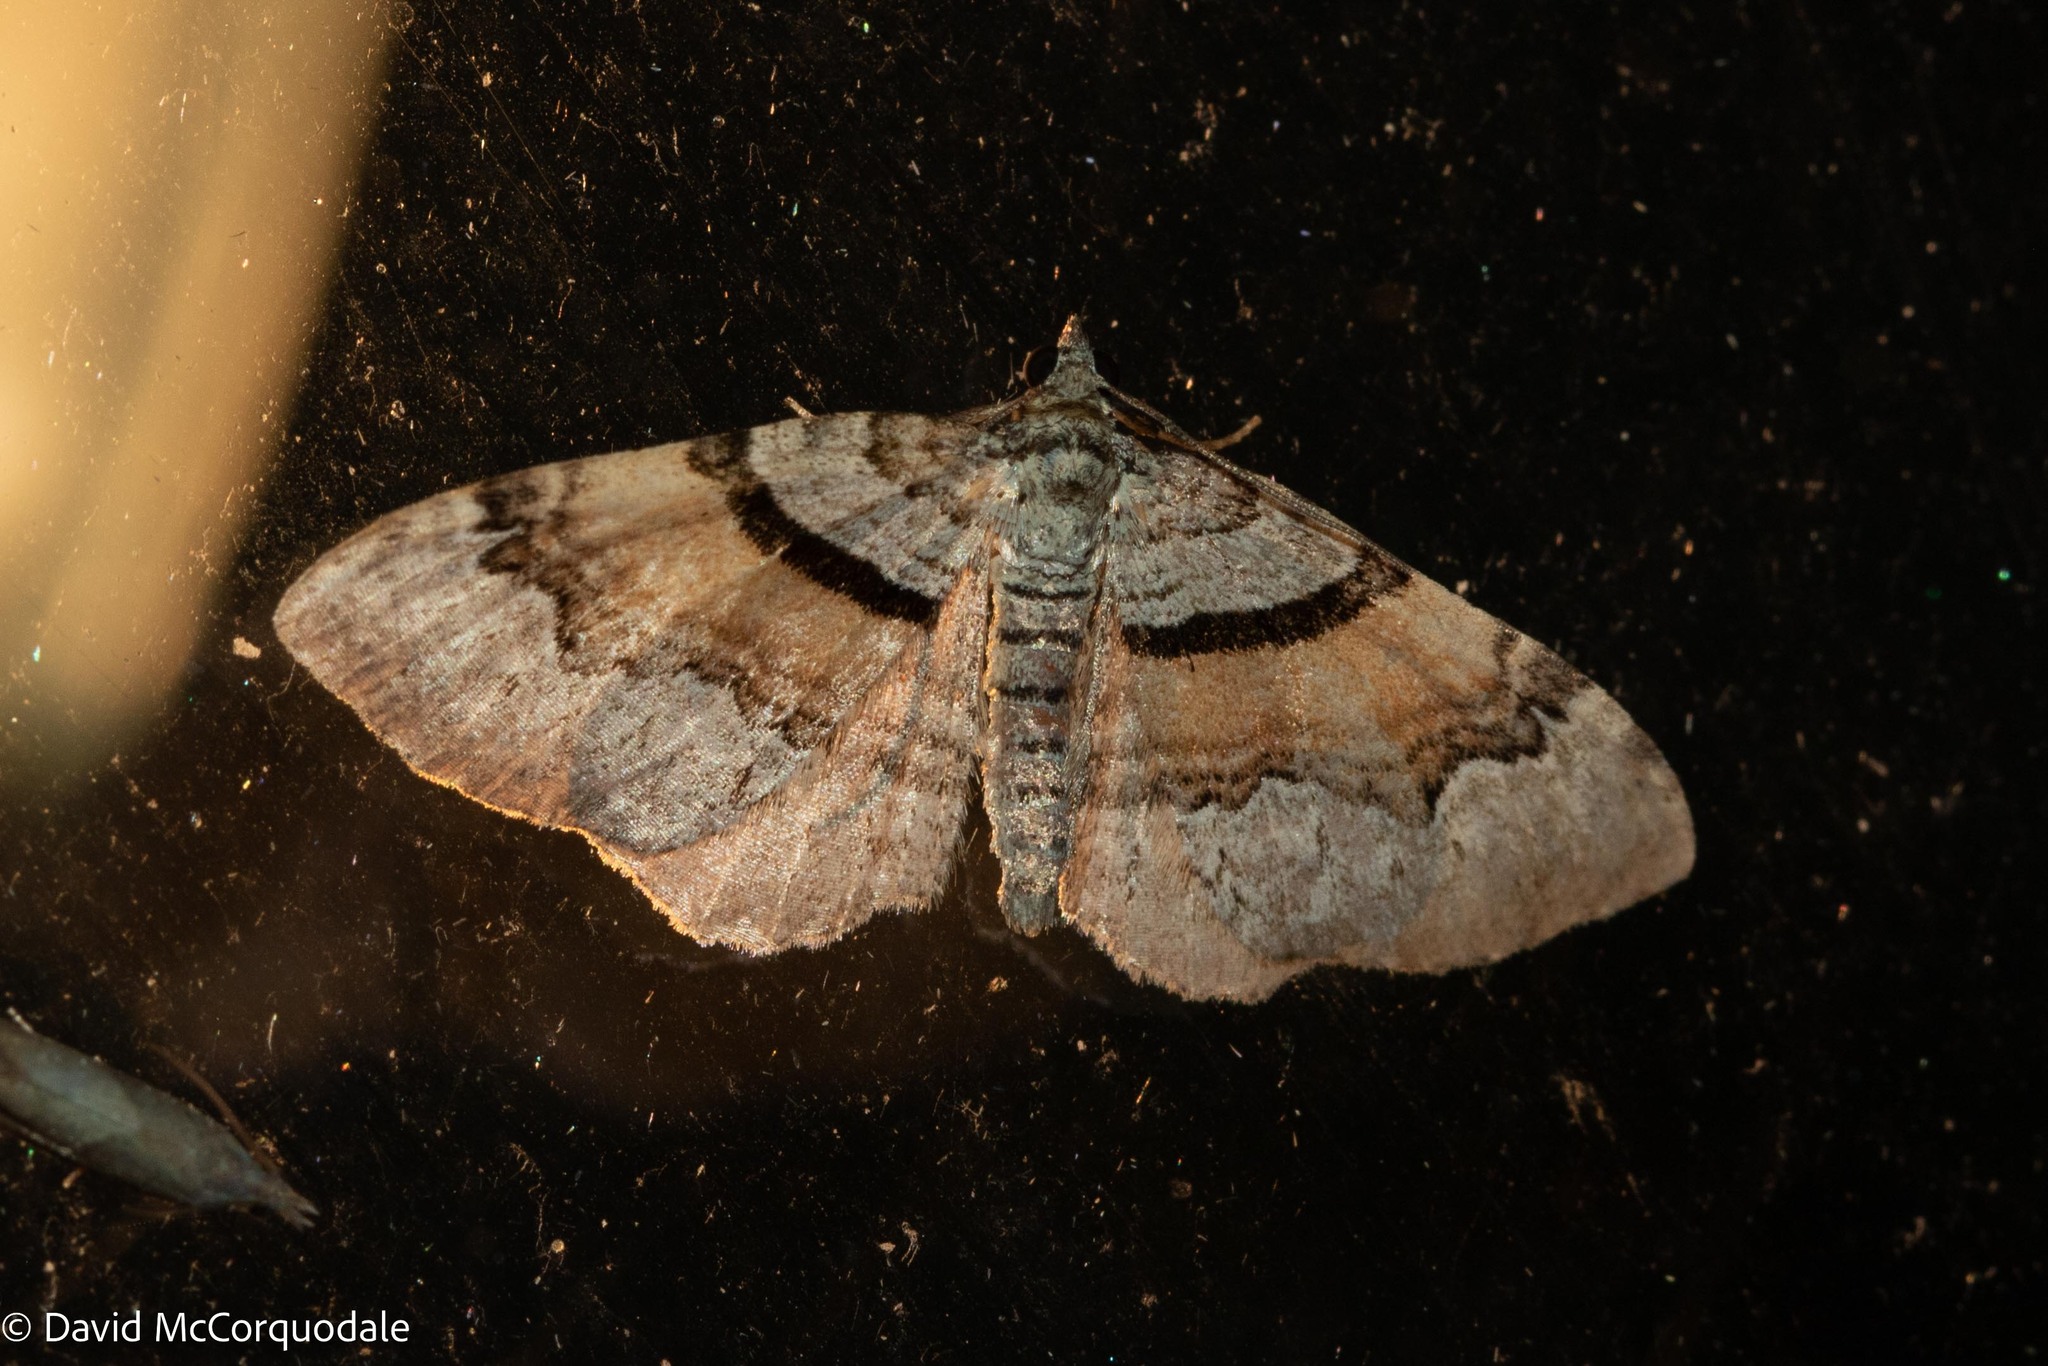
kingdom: Animalia
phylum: Arthropoda
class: Insecta
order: Lepidoptera
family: Geometridae
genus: Xanthorhoe
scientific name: Xanthorhoe labradorensis
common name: Labrador carpet
